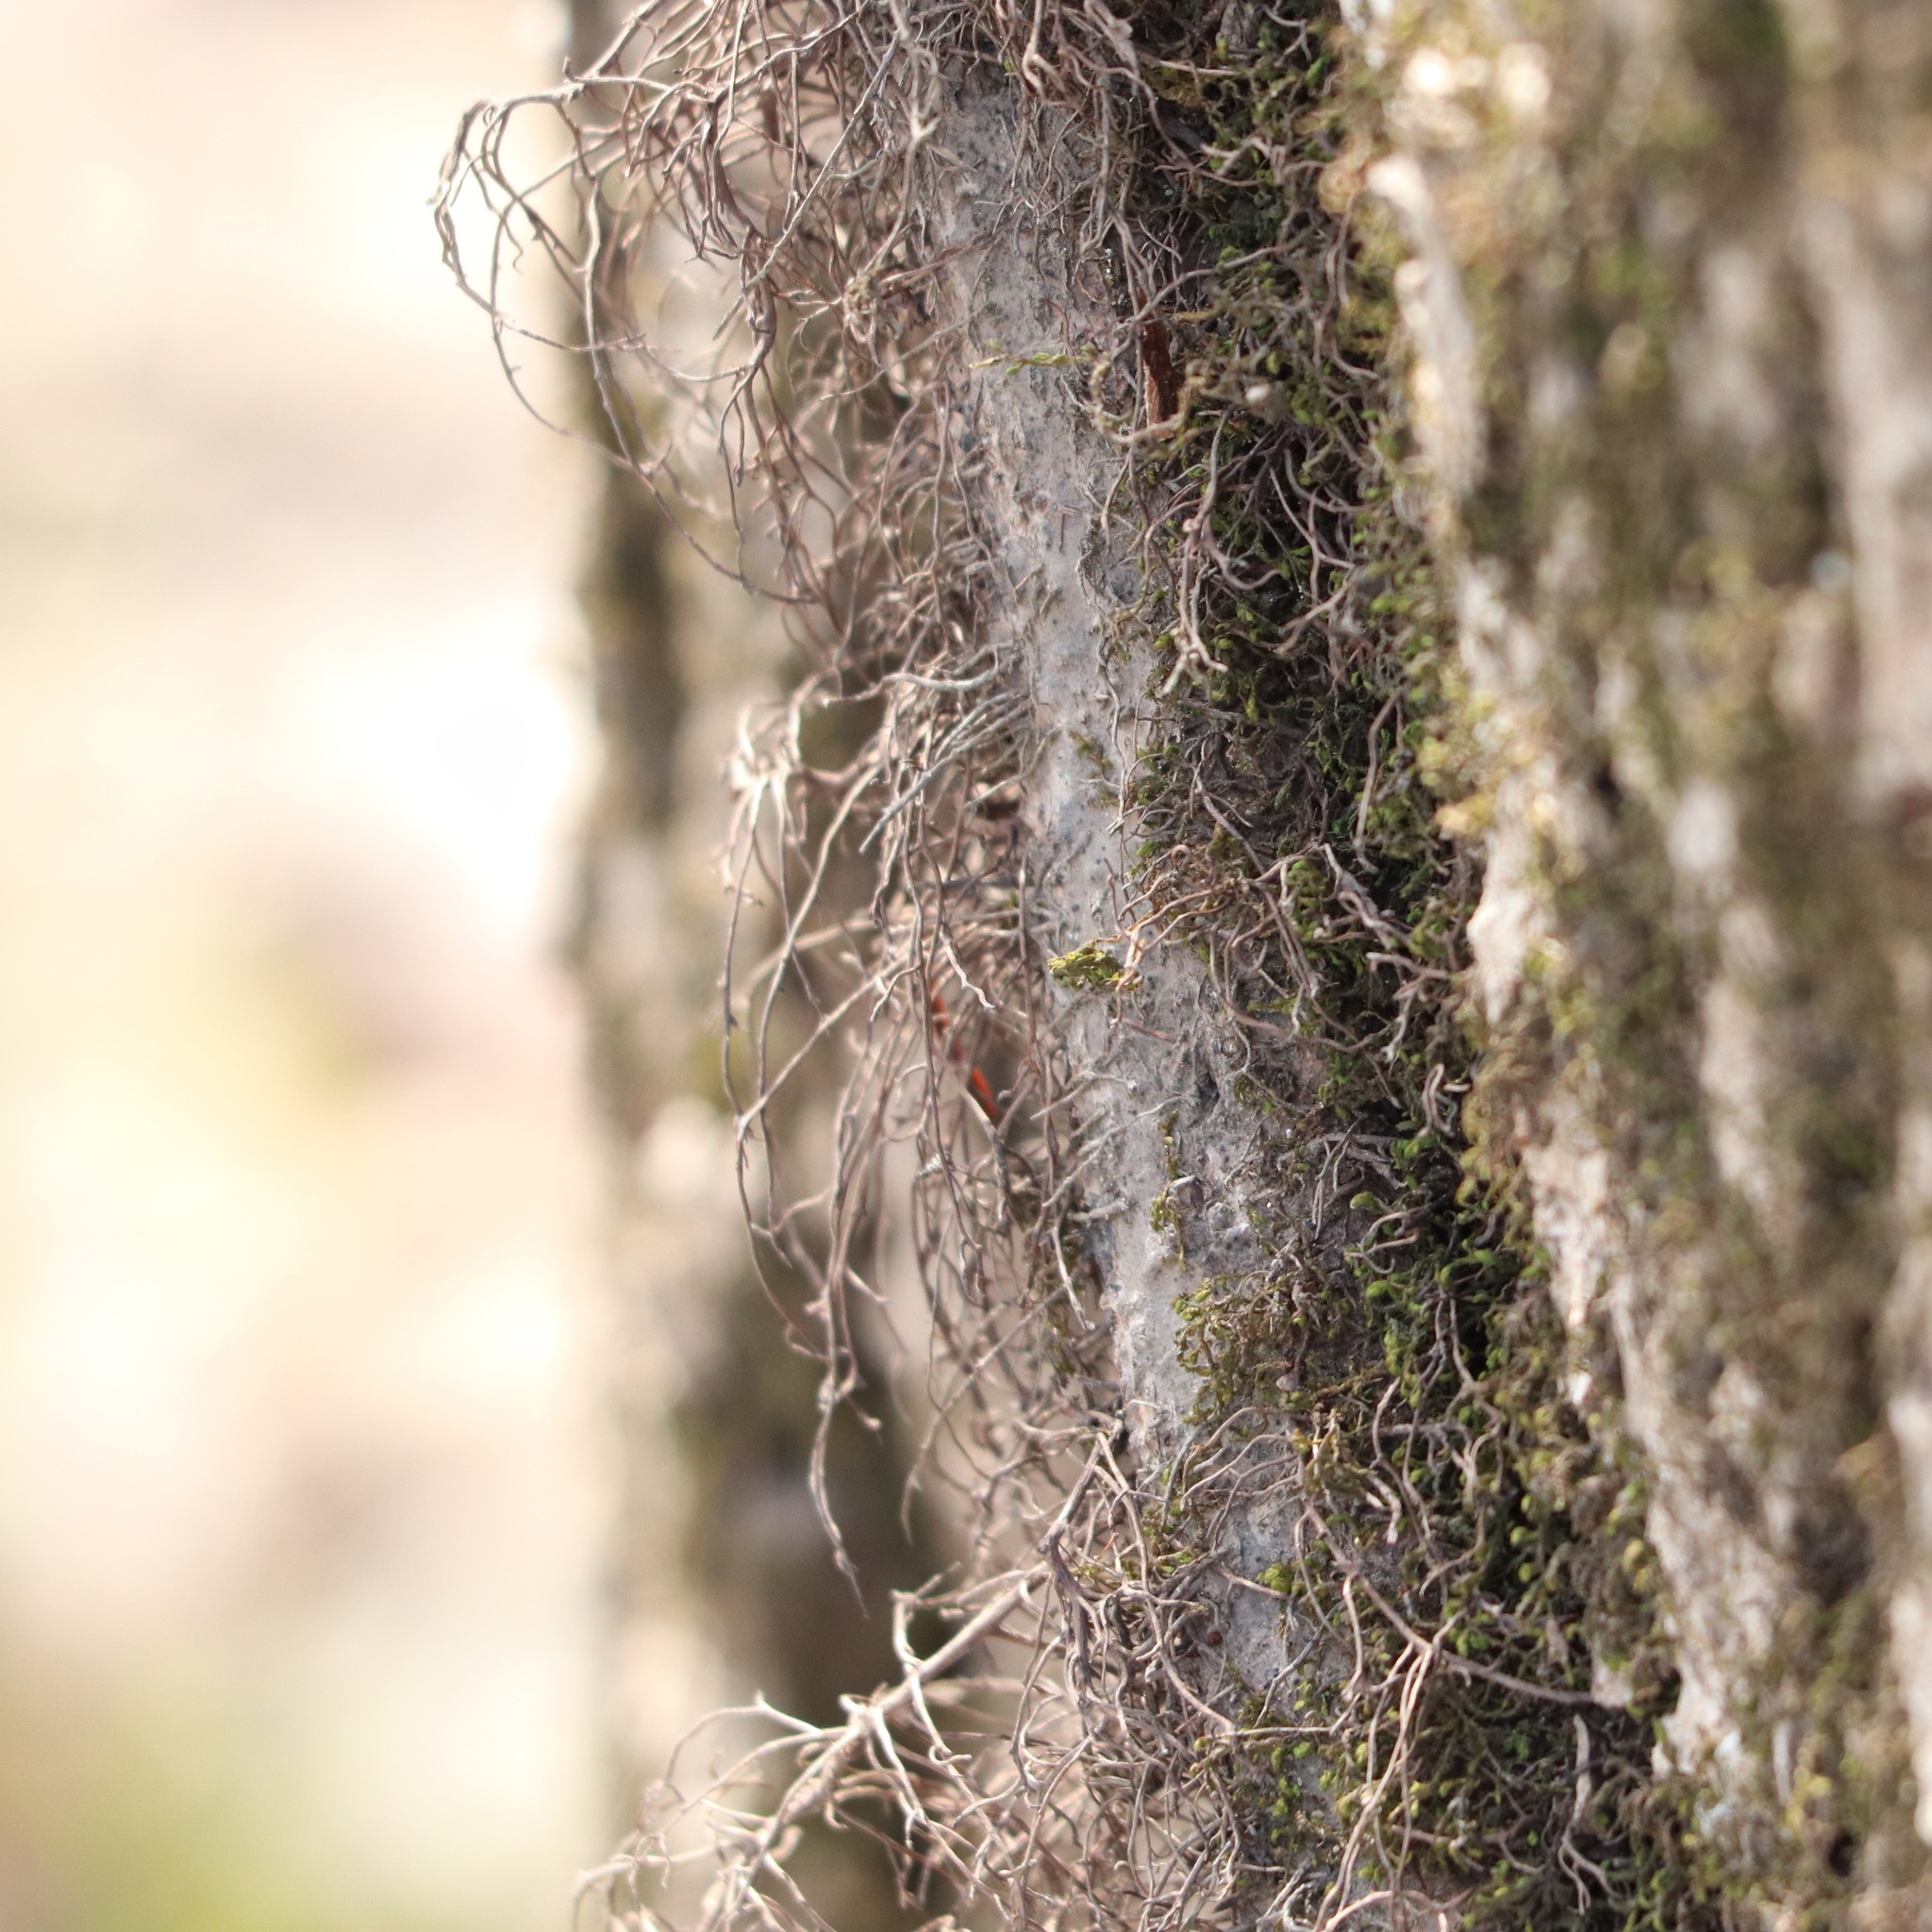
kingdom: Plantae
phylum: Tracheophyta
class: Magnoliopsida
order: Sapindales
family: Anacardiaceae
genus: Toxicodendron
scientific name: Toxicodendron radicans
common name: Poison ivy
